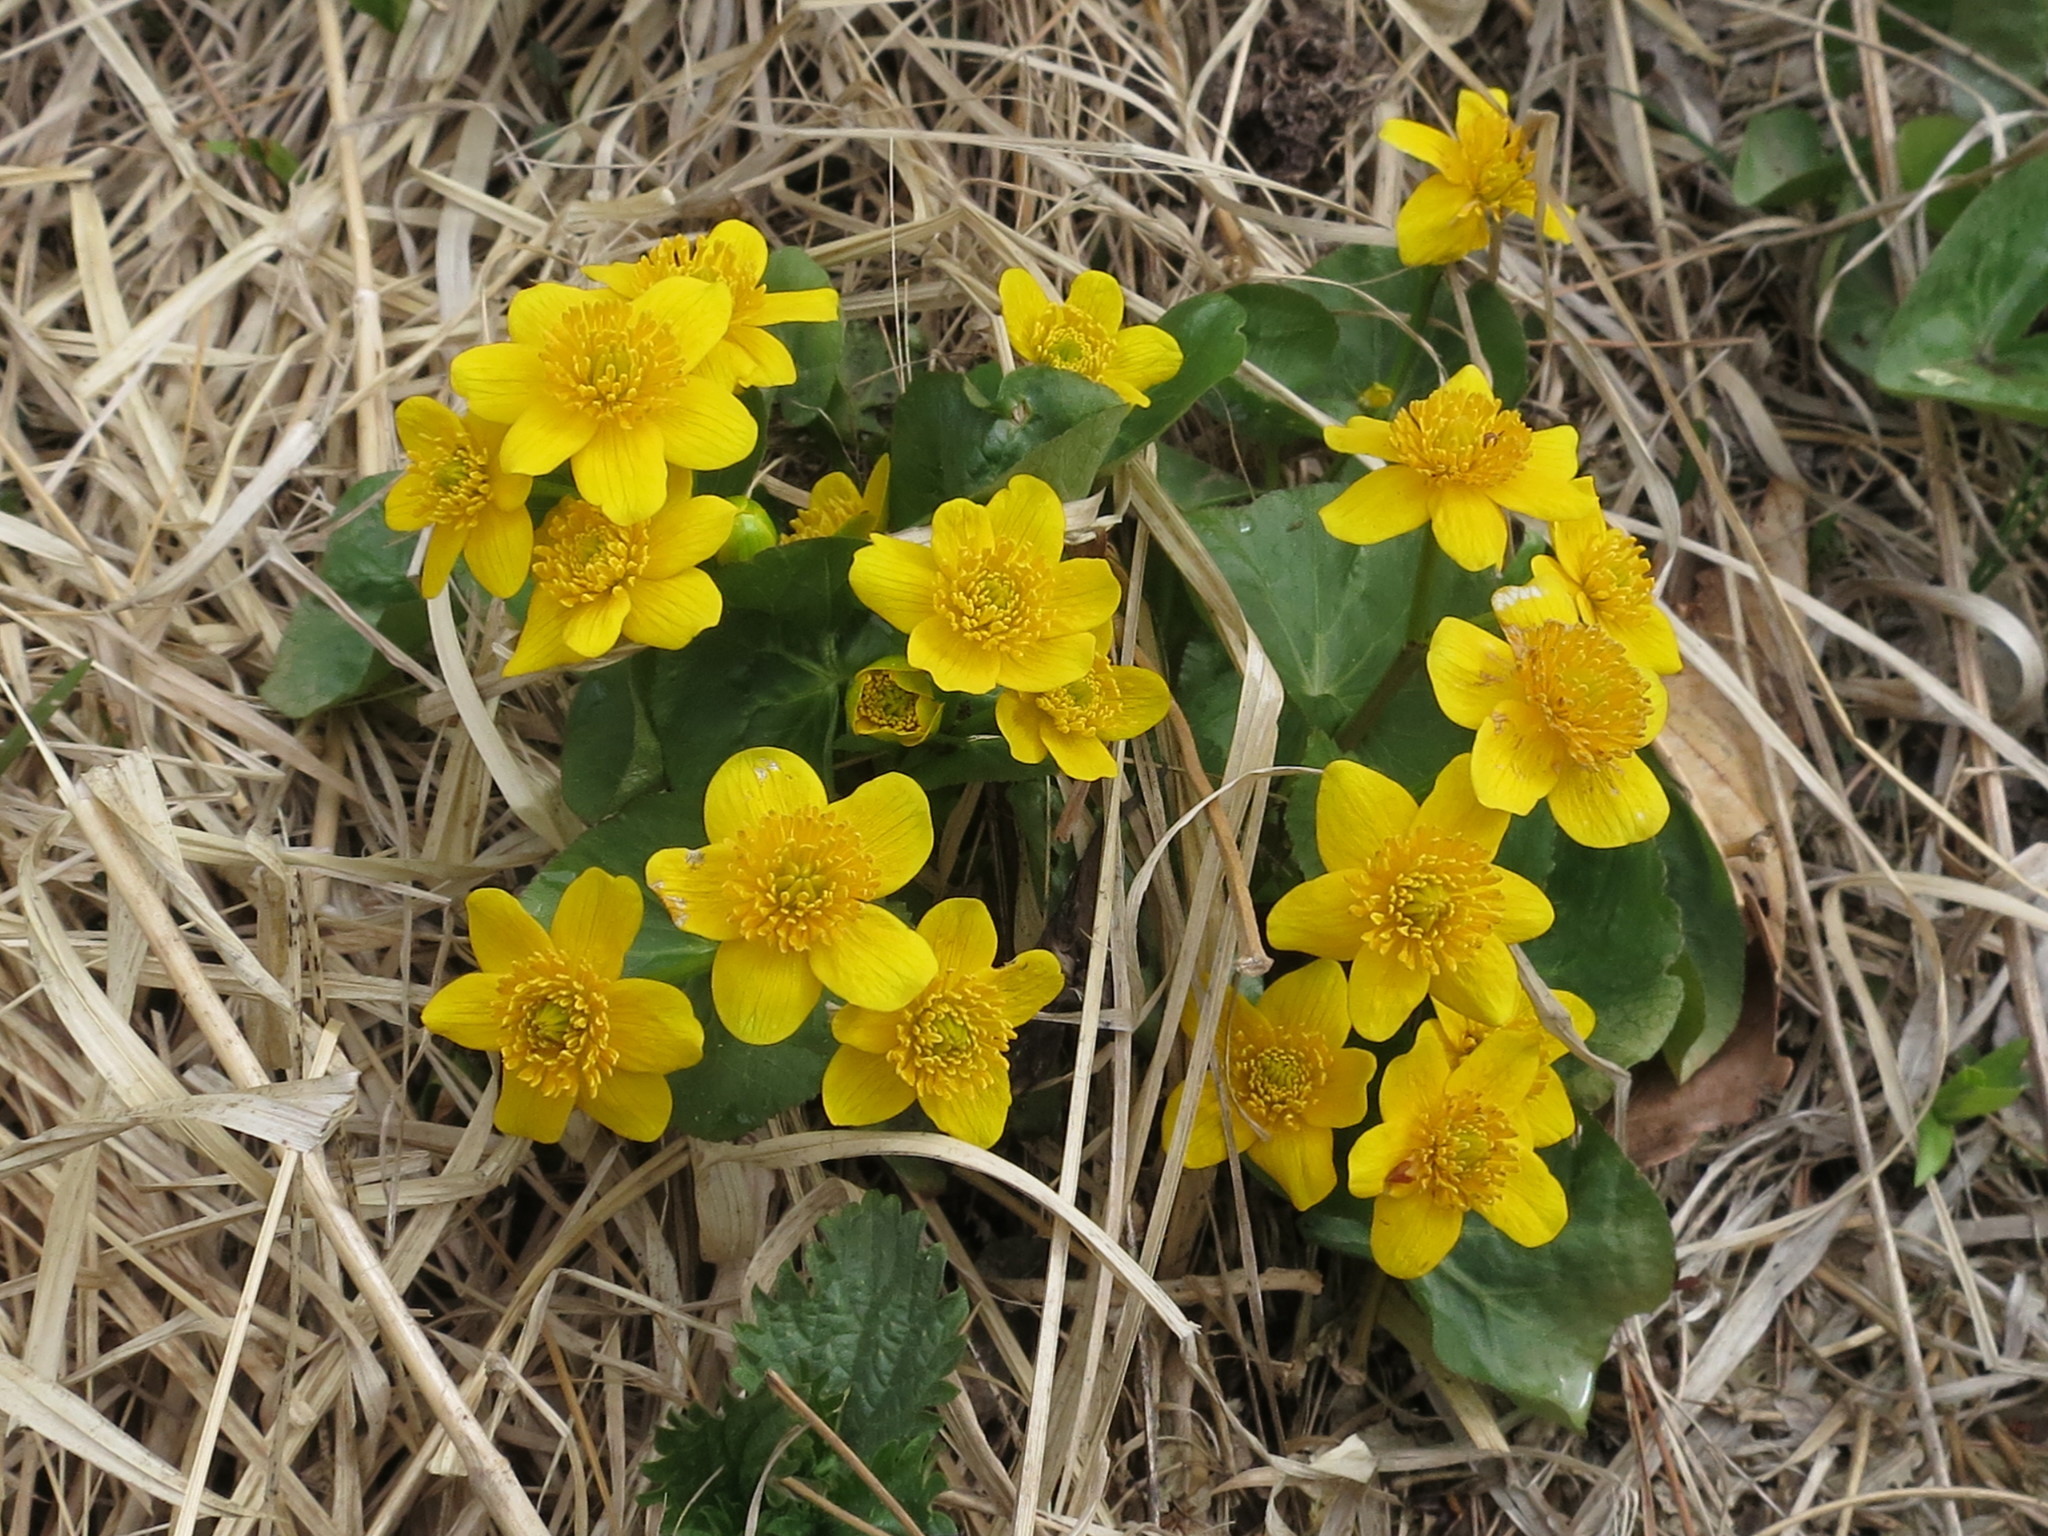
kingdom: Plantae
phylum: Tracheophyta
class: Magnoliopsida
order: Ranunculales
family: Ranunculaceae
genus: Caltha
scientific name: Caltha palustris
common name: Marsh marigold
